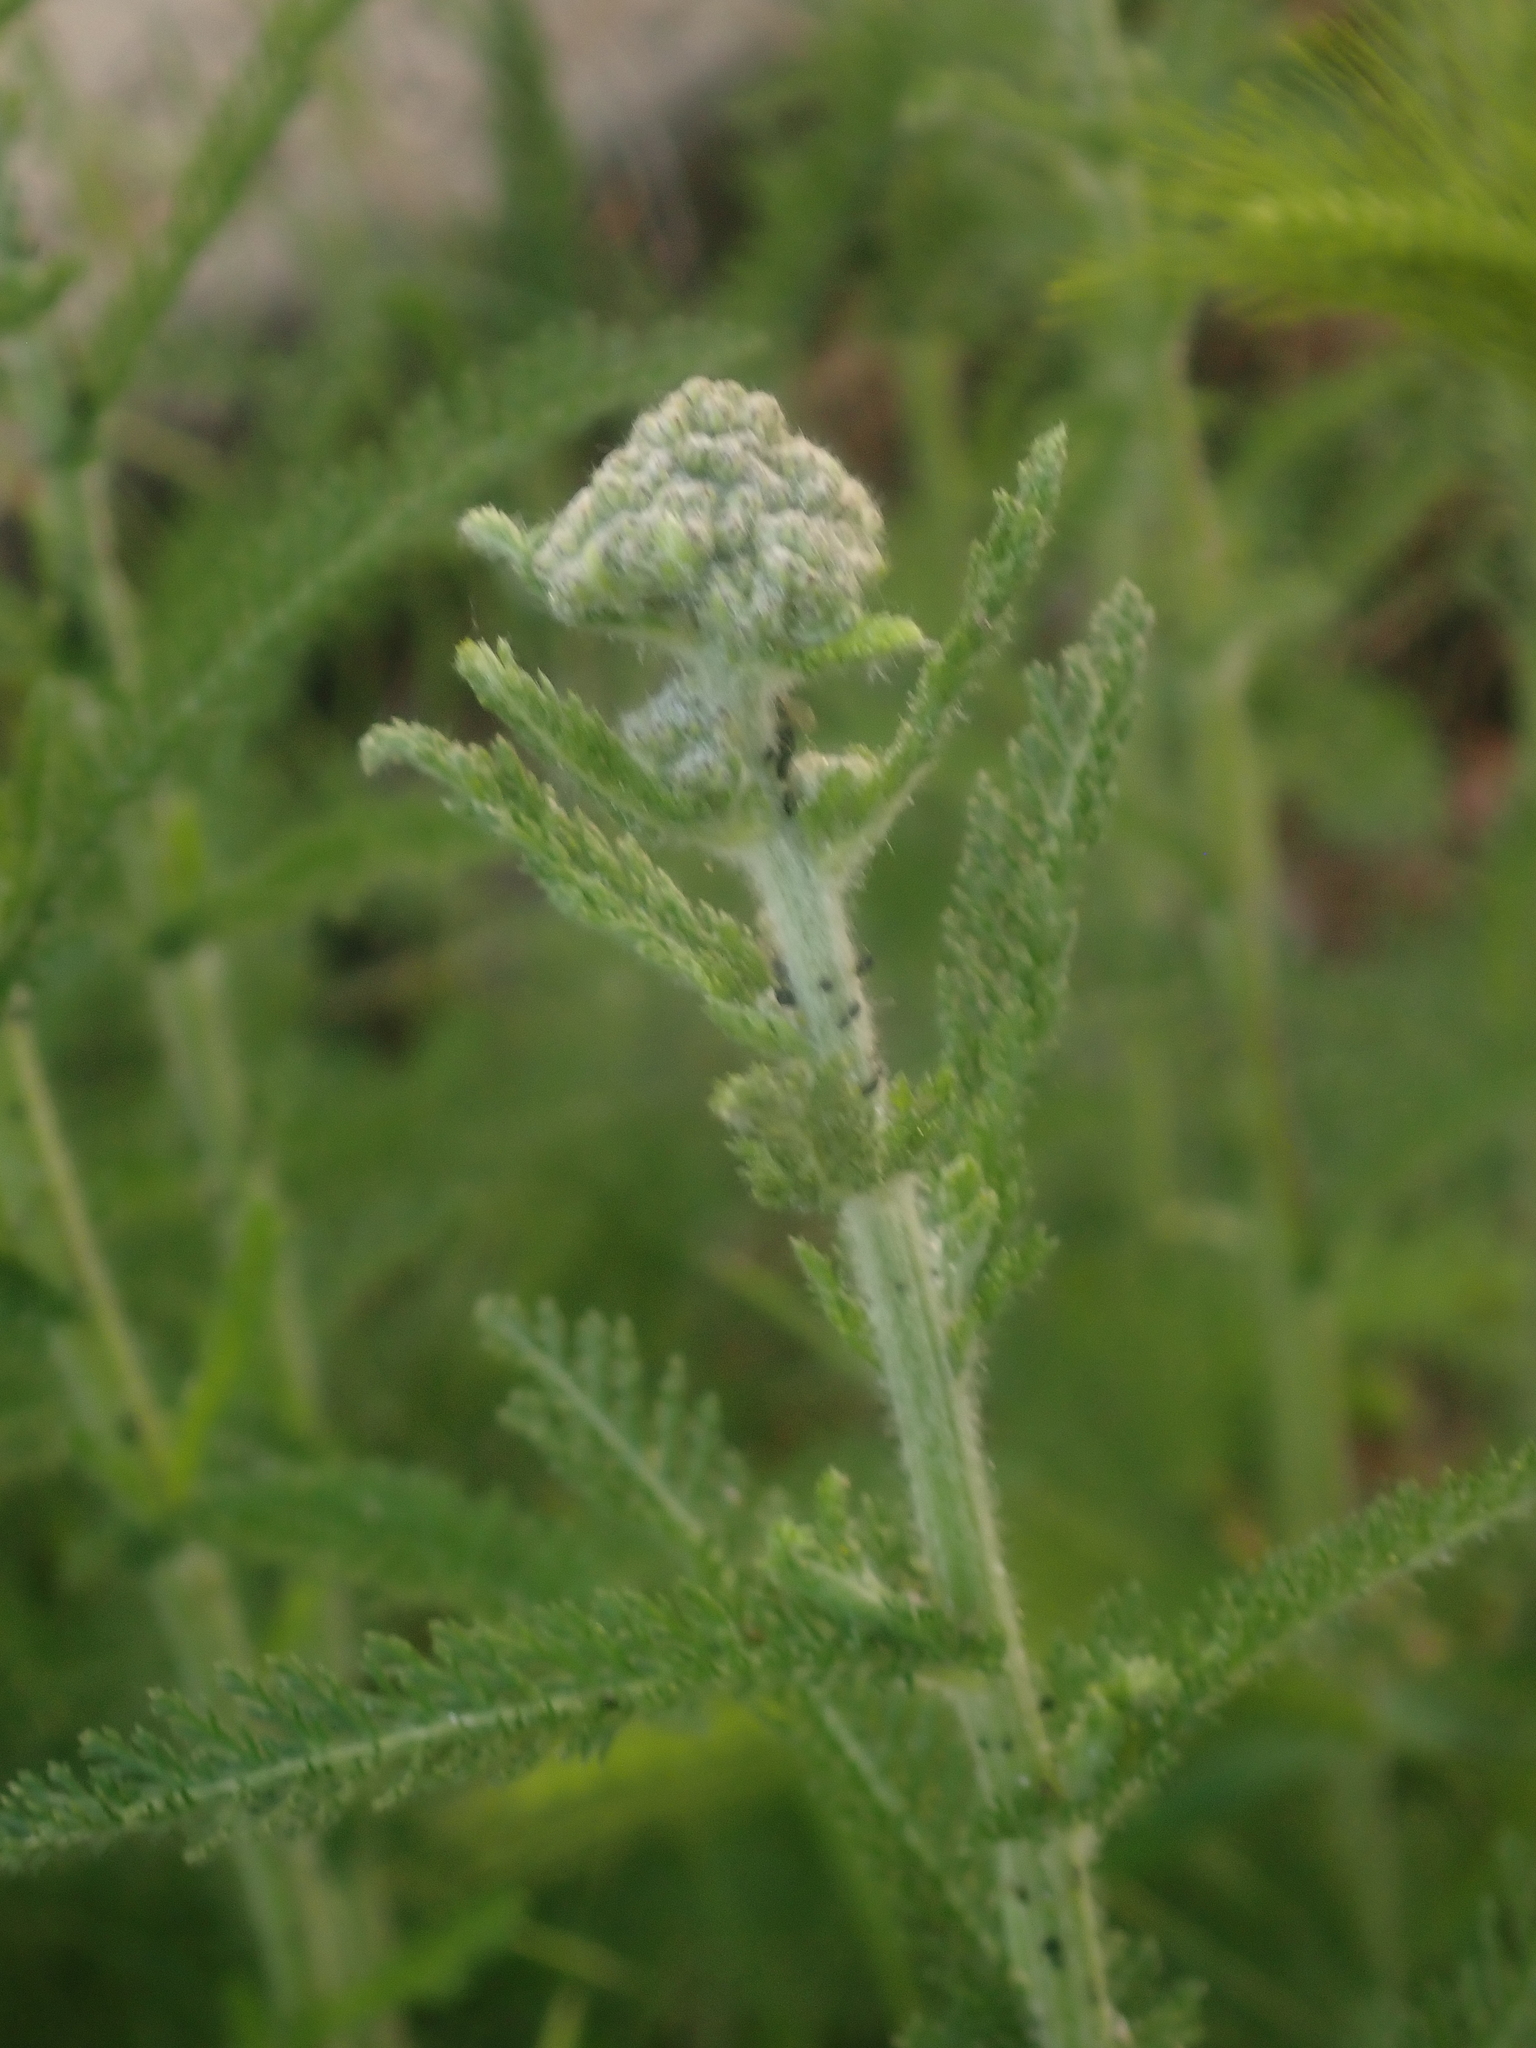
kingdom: Plantae
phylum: Tracheophyta
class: Magnoliopsida
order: Asterales
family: Asteraceae
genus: Achillea
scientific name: Achillea millefolium
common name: Yarrow
